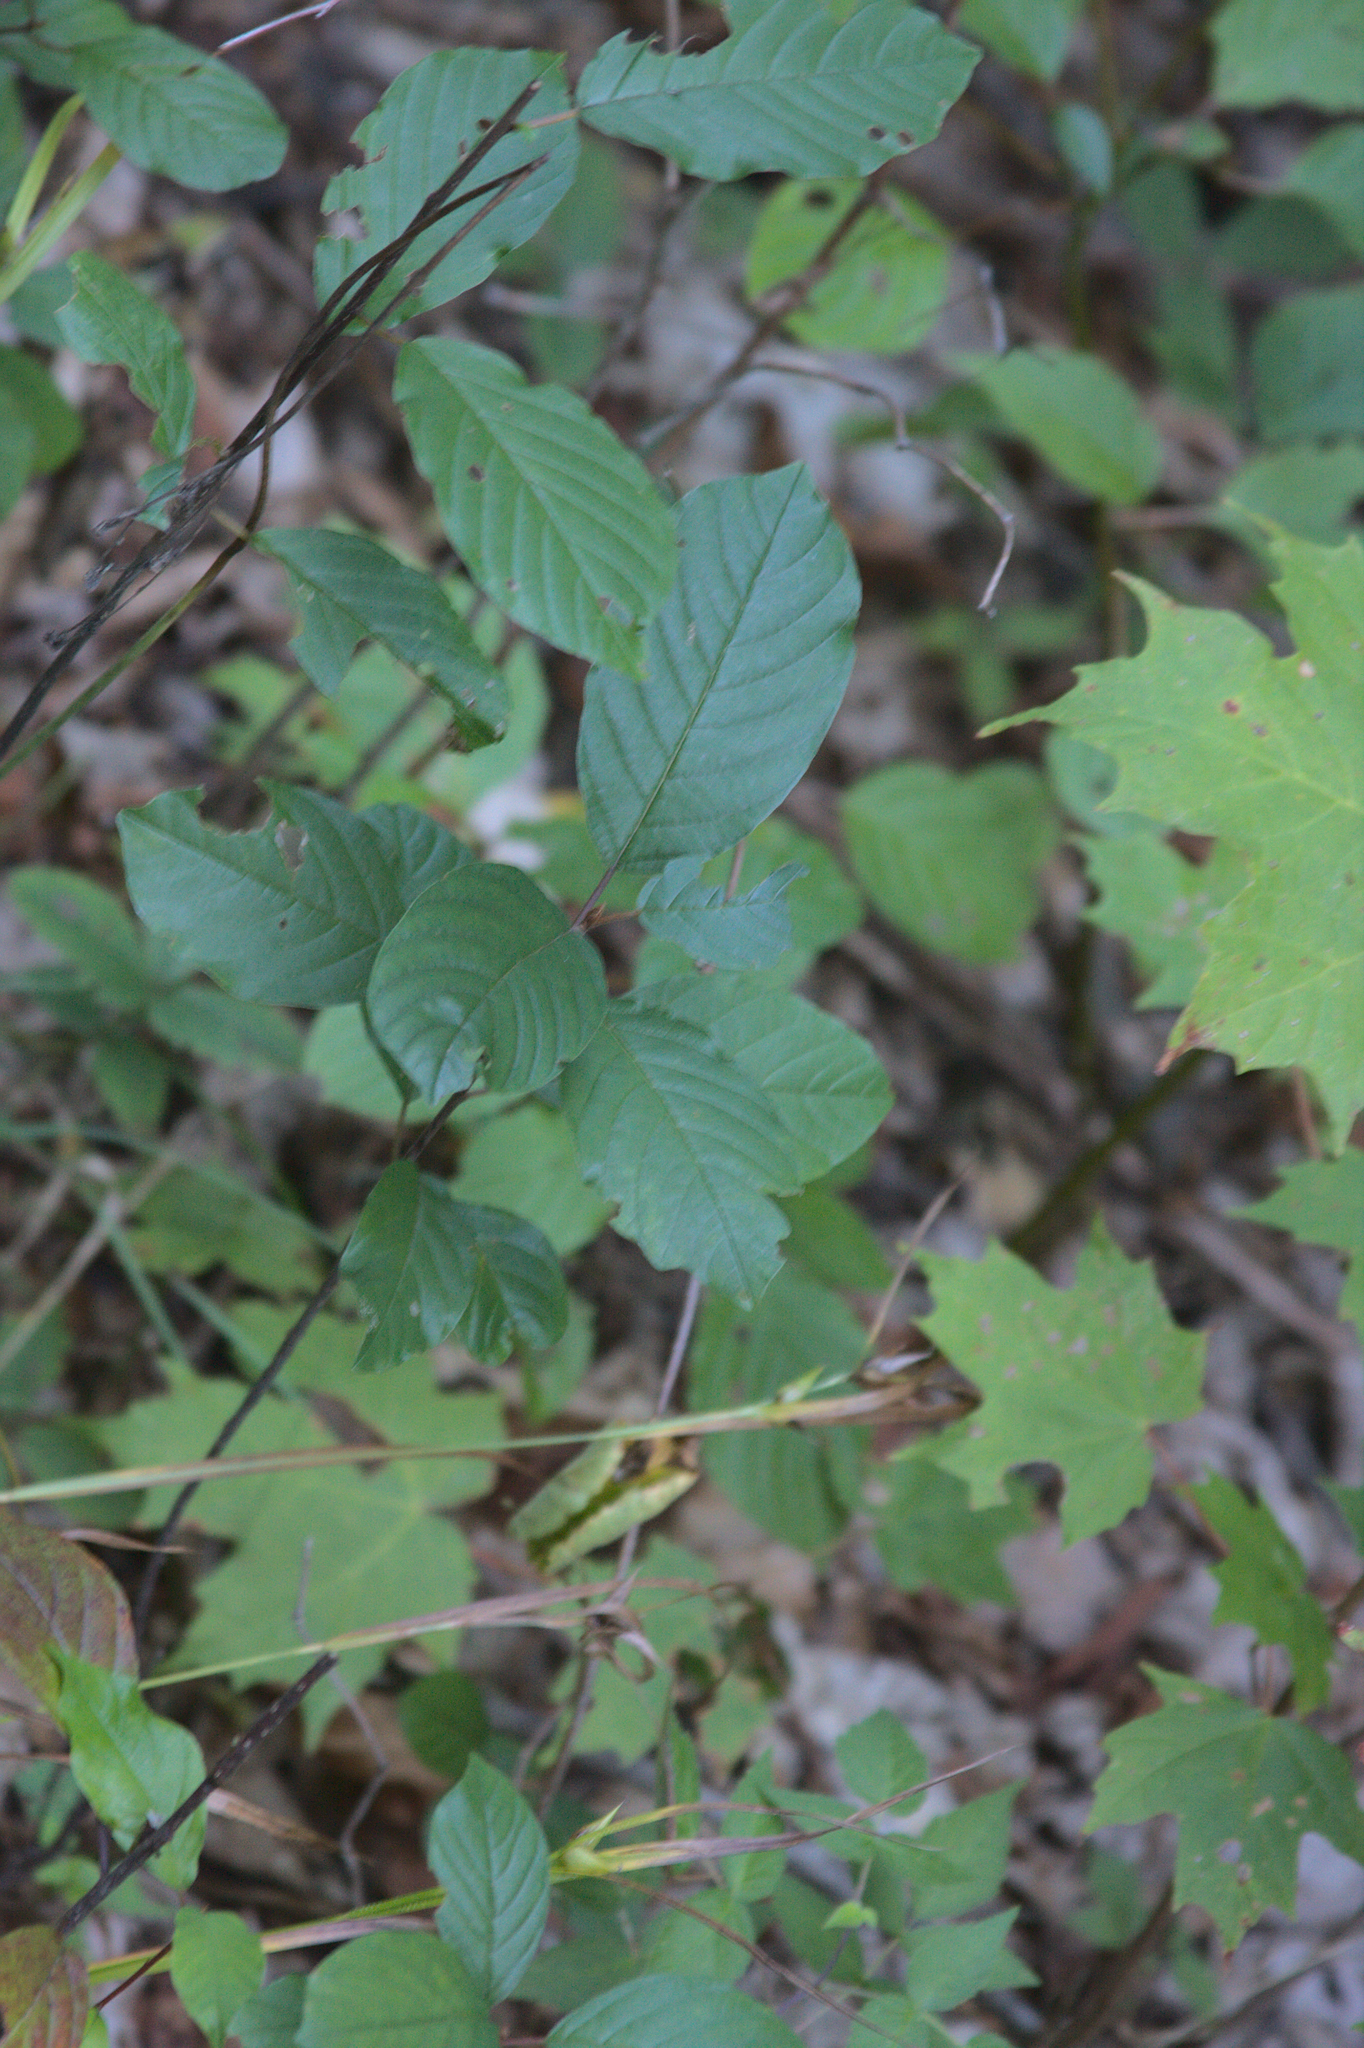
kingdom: Plantae
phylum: Tracheophyta
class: Magnoliopsida
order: Rosales
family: Rhamnaceae
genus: Frangula
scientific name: Frangula alnus
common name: Alder buckthorn
